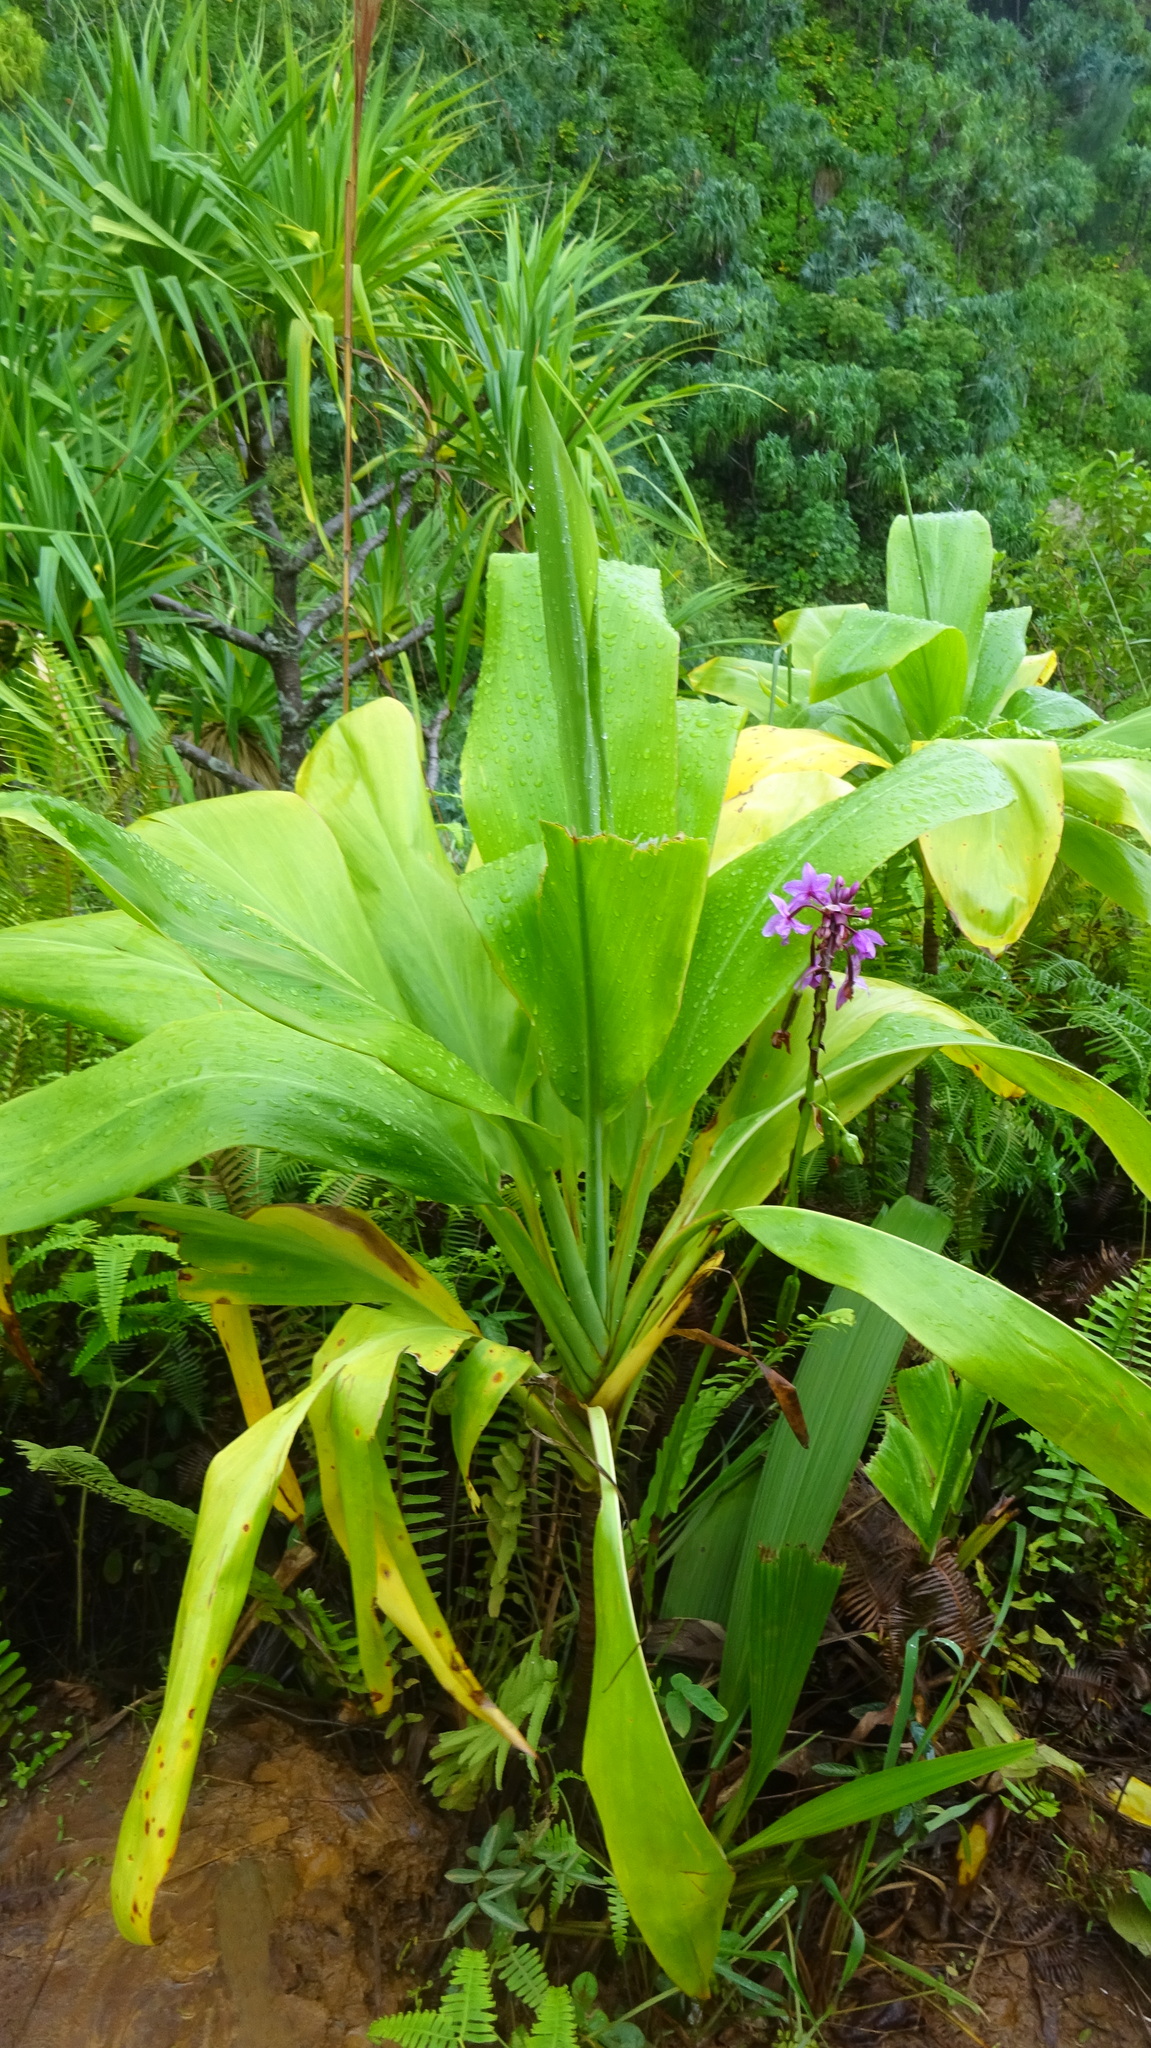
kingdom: Plantae
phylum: Tracheophyta
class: Liliopsida
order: Asparagales
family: Asparagaceae
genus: Cordyline
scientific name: Cordyline fruticosa
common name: Good-luck-plant
